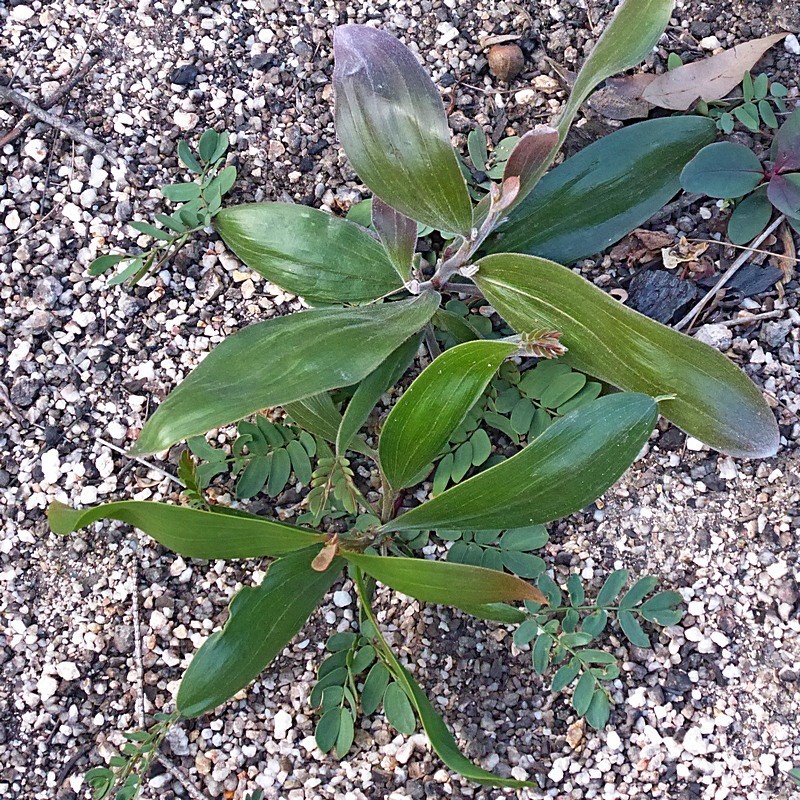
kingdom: Plantae
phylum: Tracheophyta
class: Magnoliopsida
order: Fabales
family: Fabaceae
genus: Acacia
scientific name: Acacia georgensis
